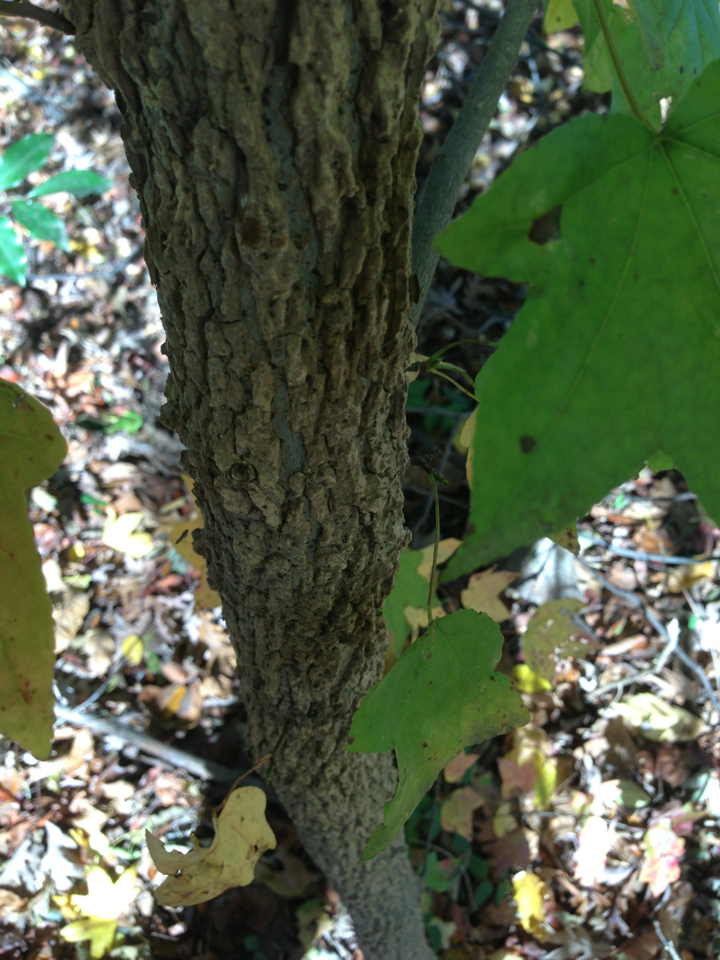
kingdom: Plantae
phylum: Tracheophyta
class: Magnoliopsida
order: Saxifragales
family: Altingiaceae
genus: Liquidambar
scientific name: Liquidambar styraciflua
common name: Sweet gum
